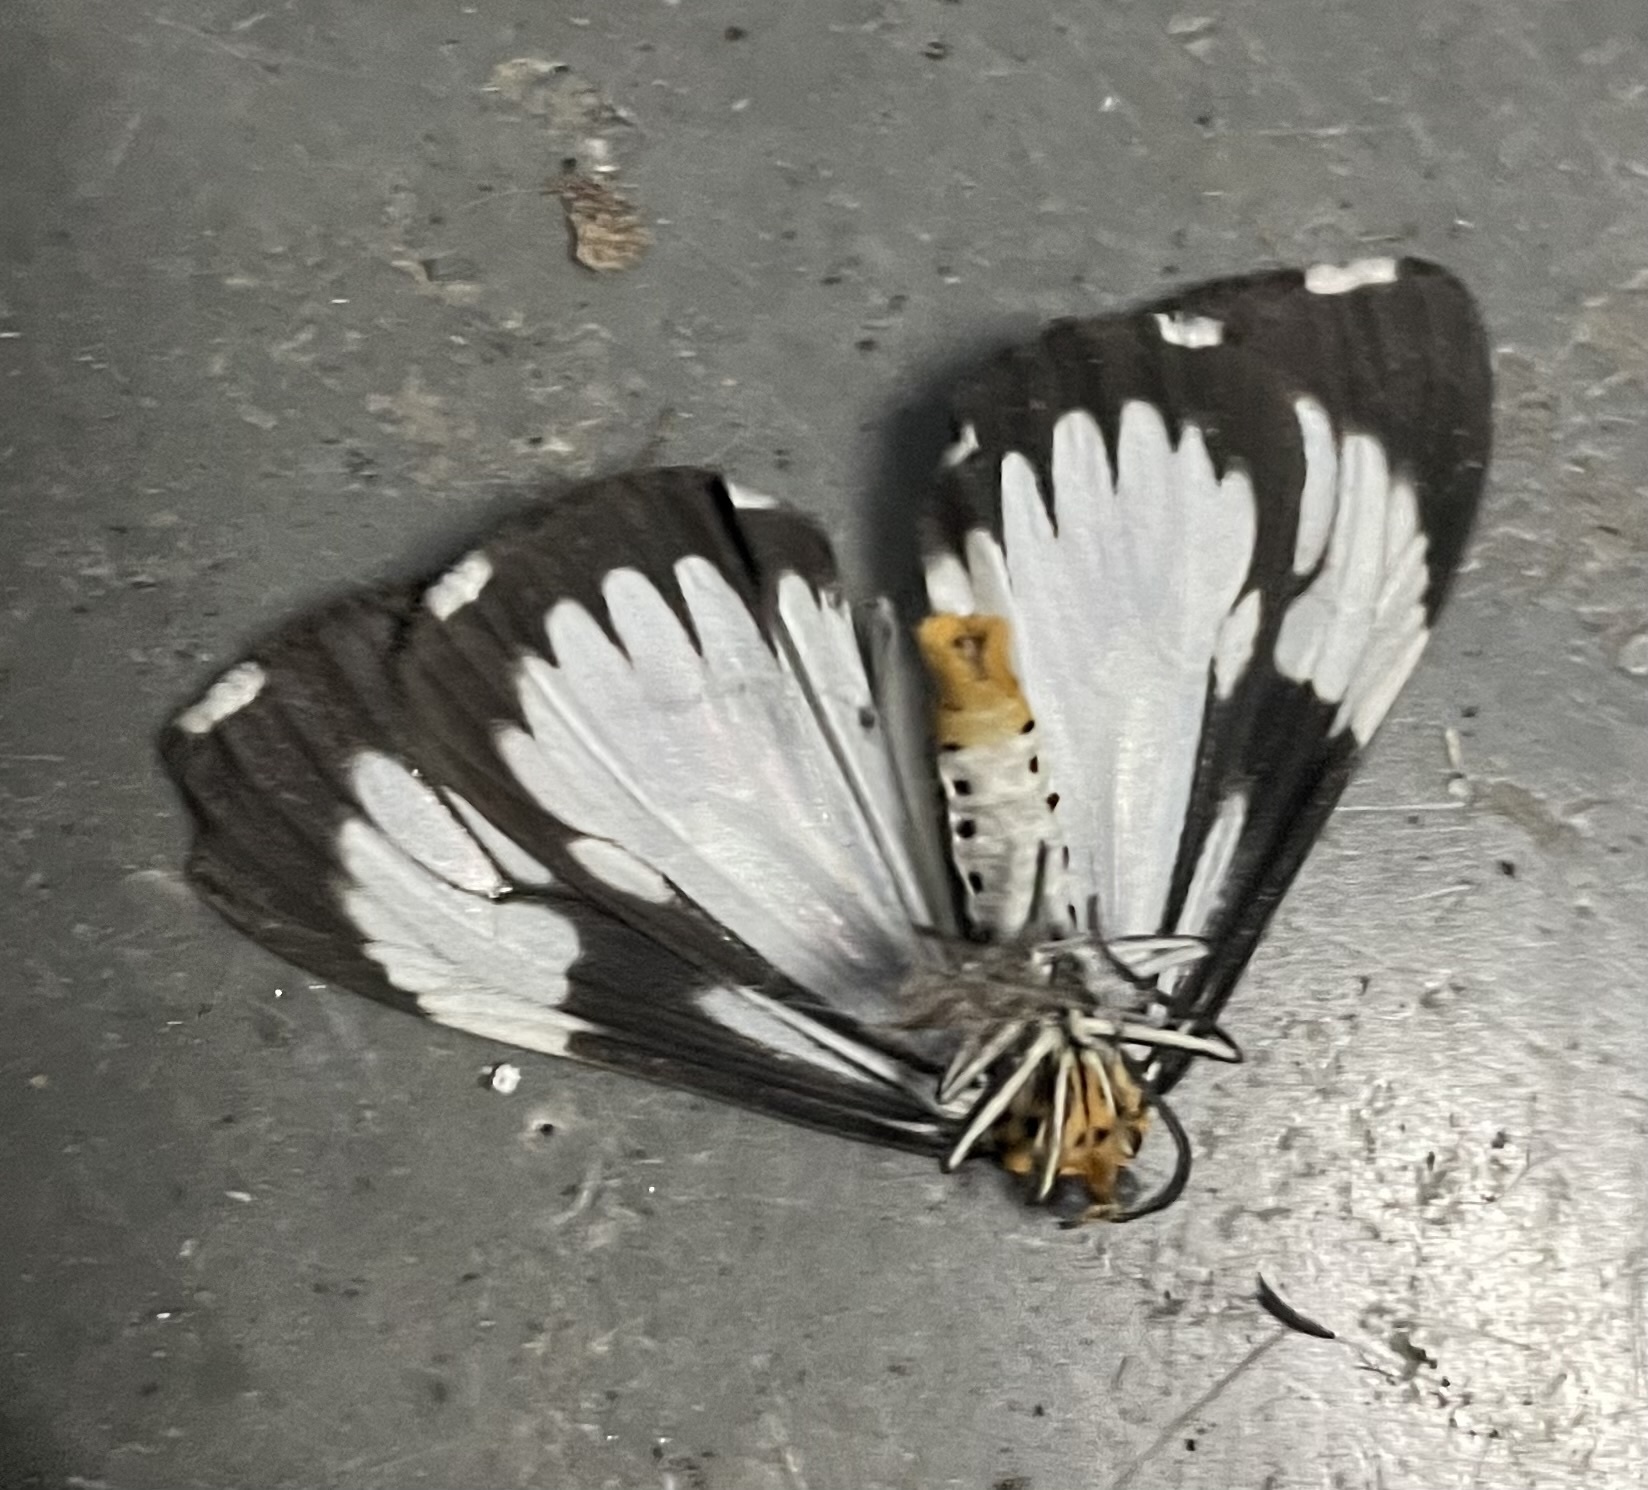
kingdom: Animalia
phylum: Arthropoda
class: Insecta
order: Lepidoptera
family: Erebidae
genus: Nyctemera
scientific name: Nyctemera coleta
